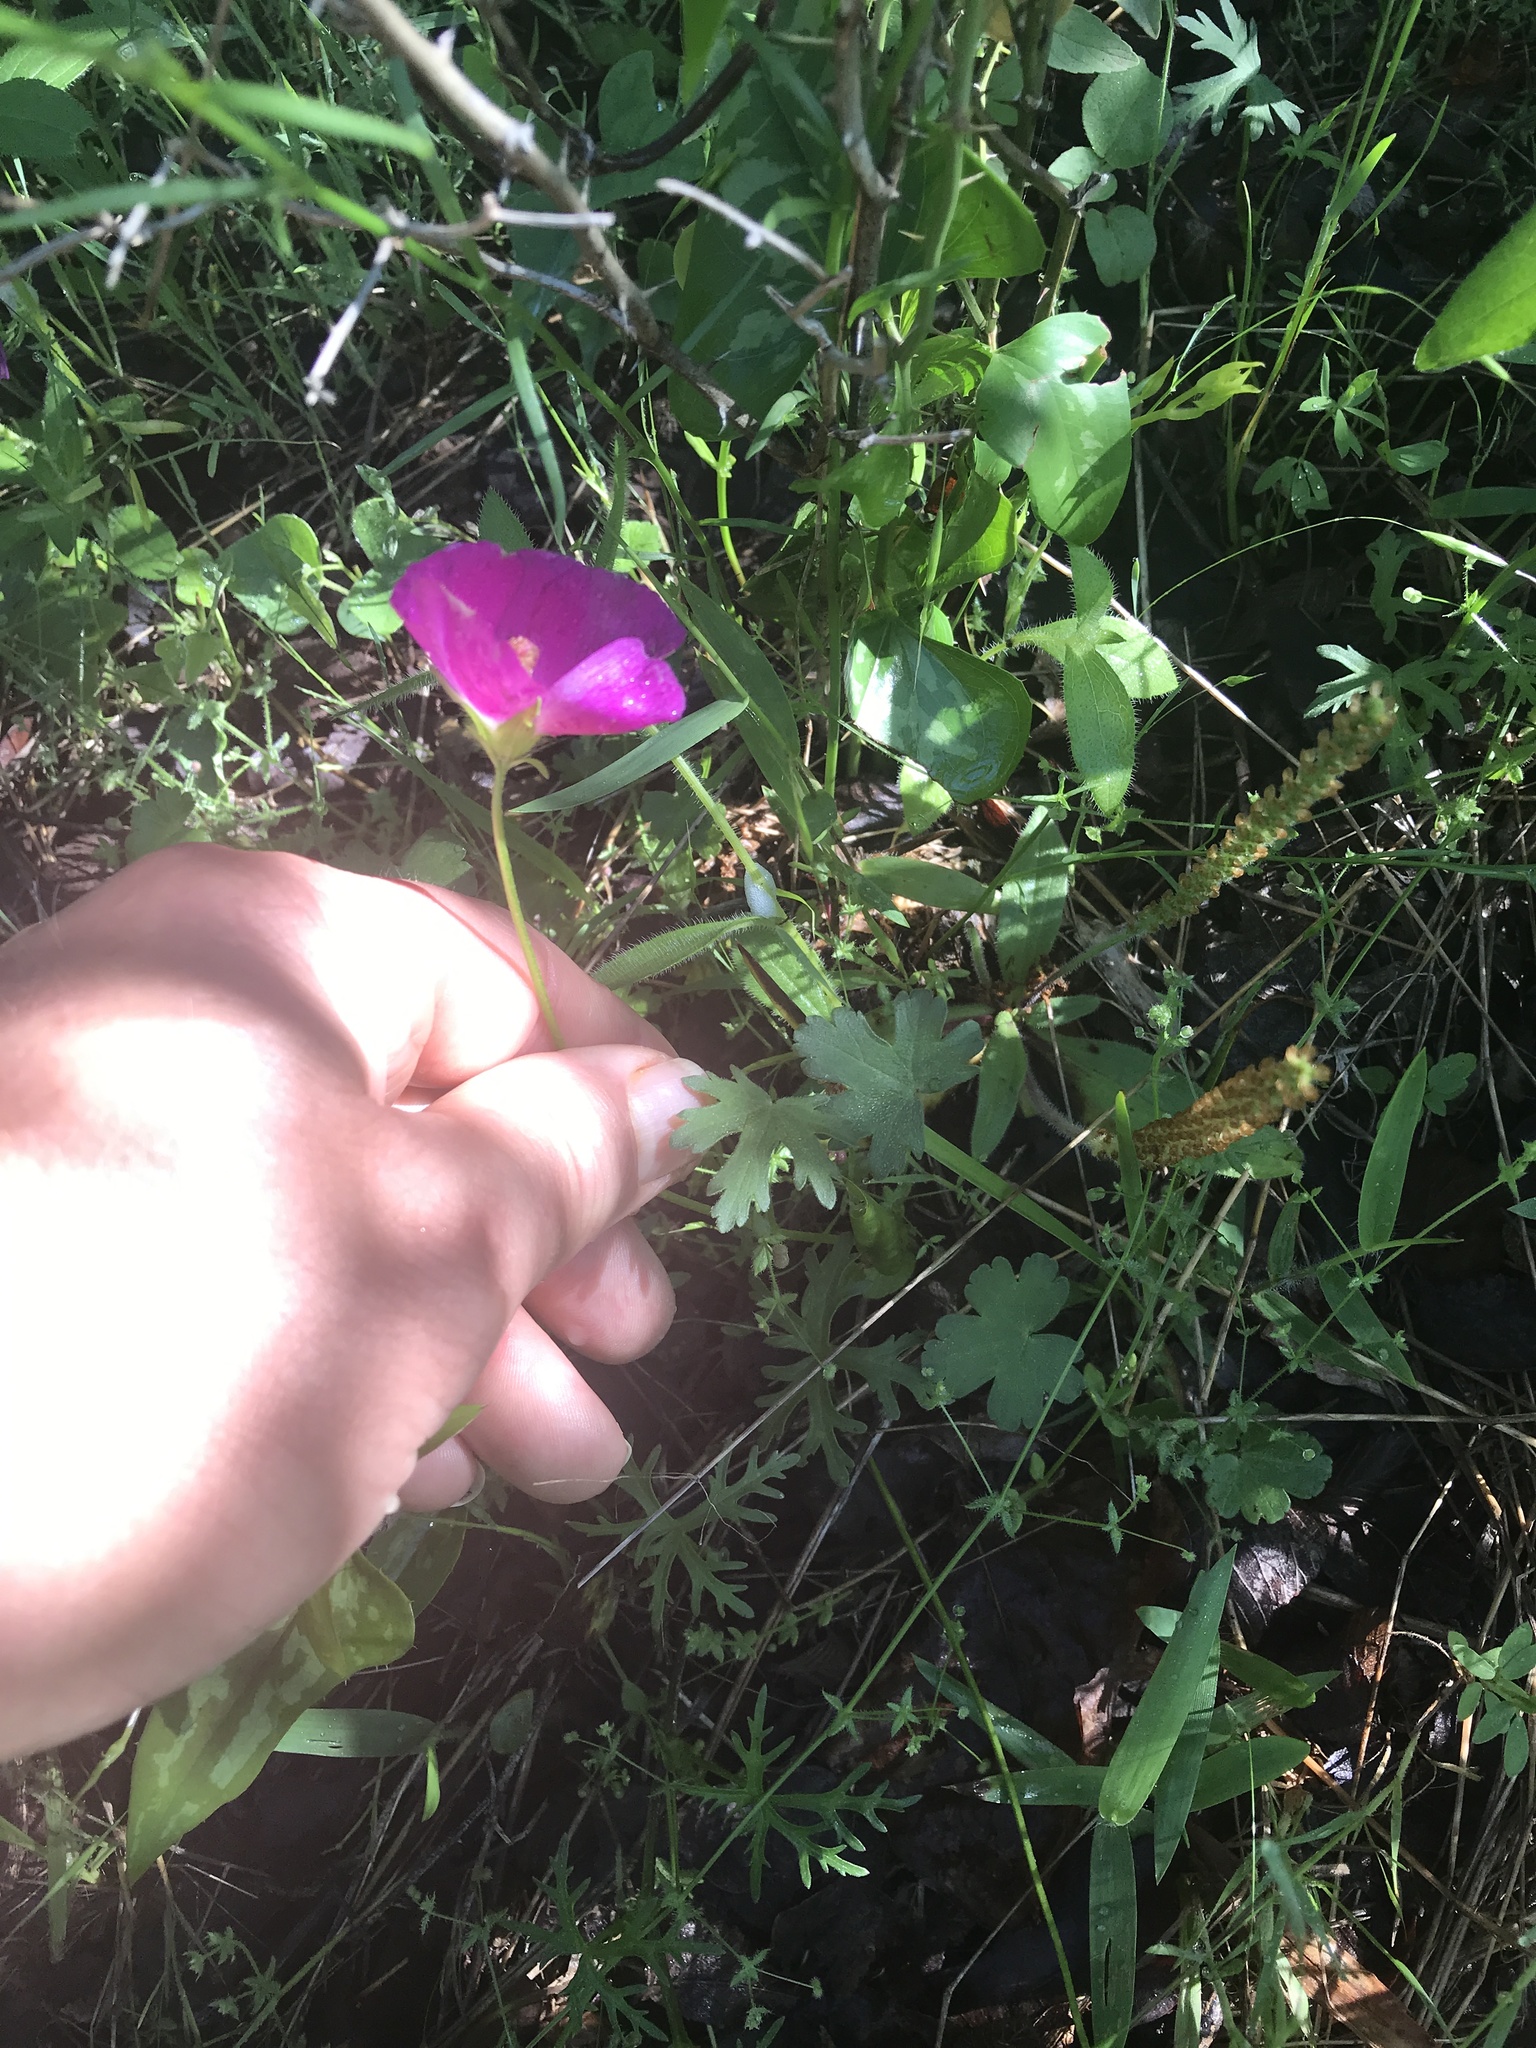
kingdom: Plantae
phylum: Tracheophyta
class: Magnoliopsida
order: Malvales
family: Malvaceae
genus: Callirhoe
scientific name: Callirhoe involucrata
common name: Purple poppy-mallow
